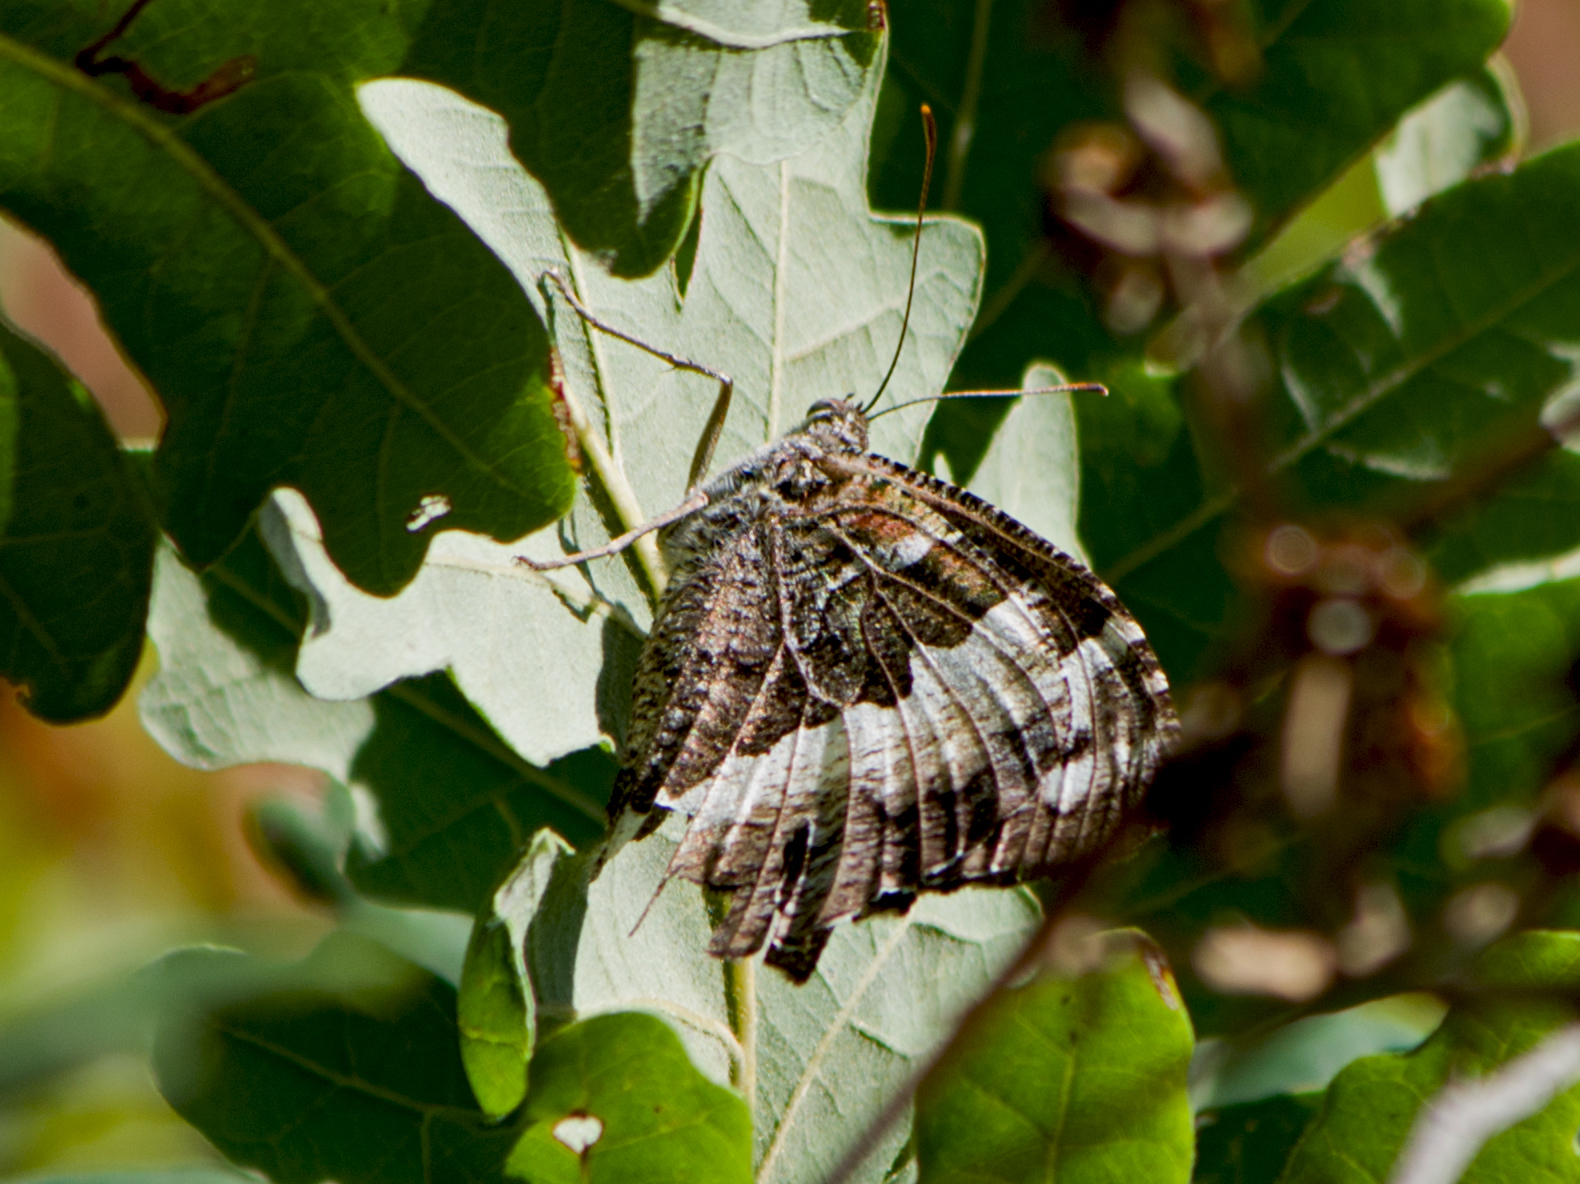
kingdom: Animalia
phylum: Arthropoda
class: Insecta
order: Lepidoptera
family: Lycaenidae
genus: Loweia
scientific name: Loweia tityrus
